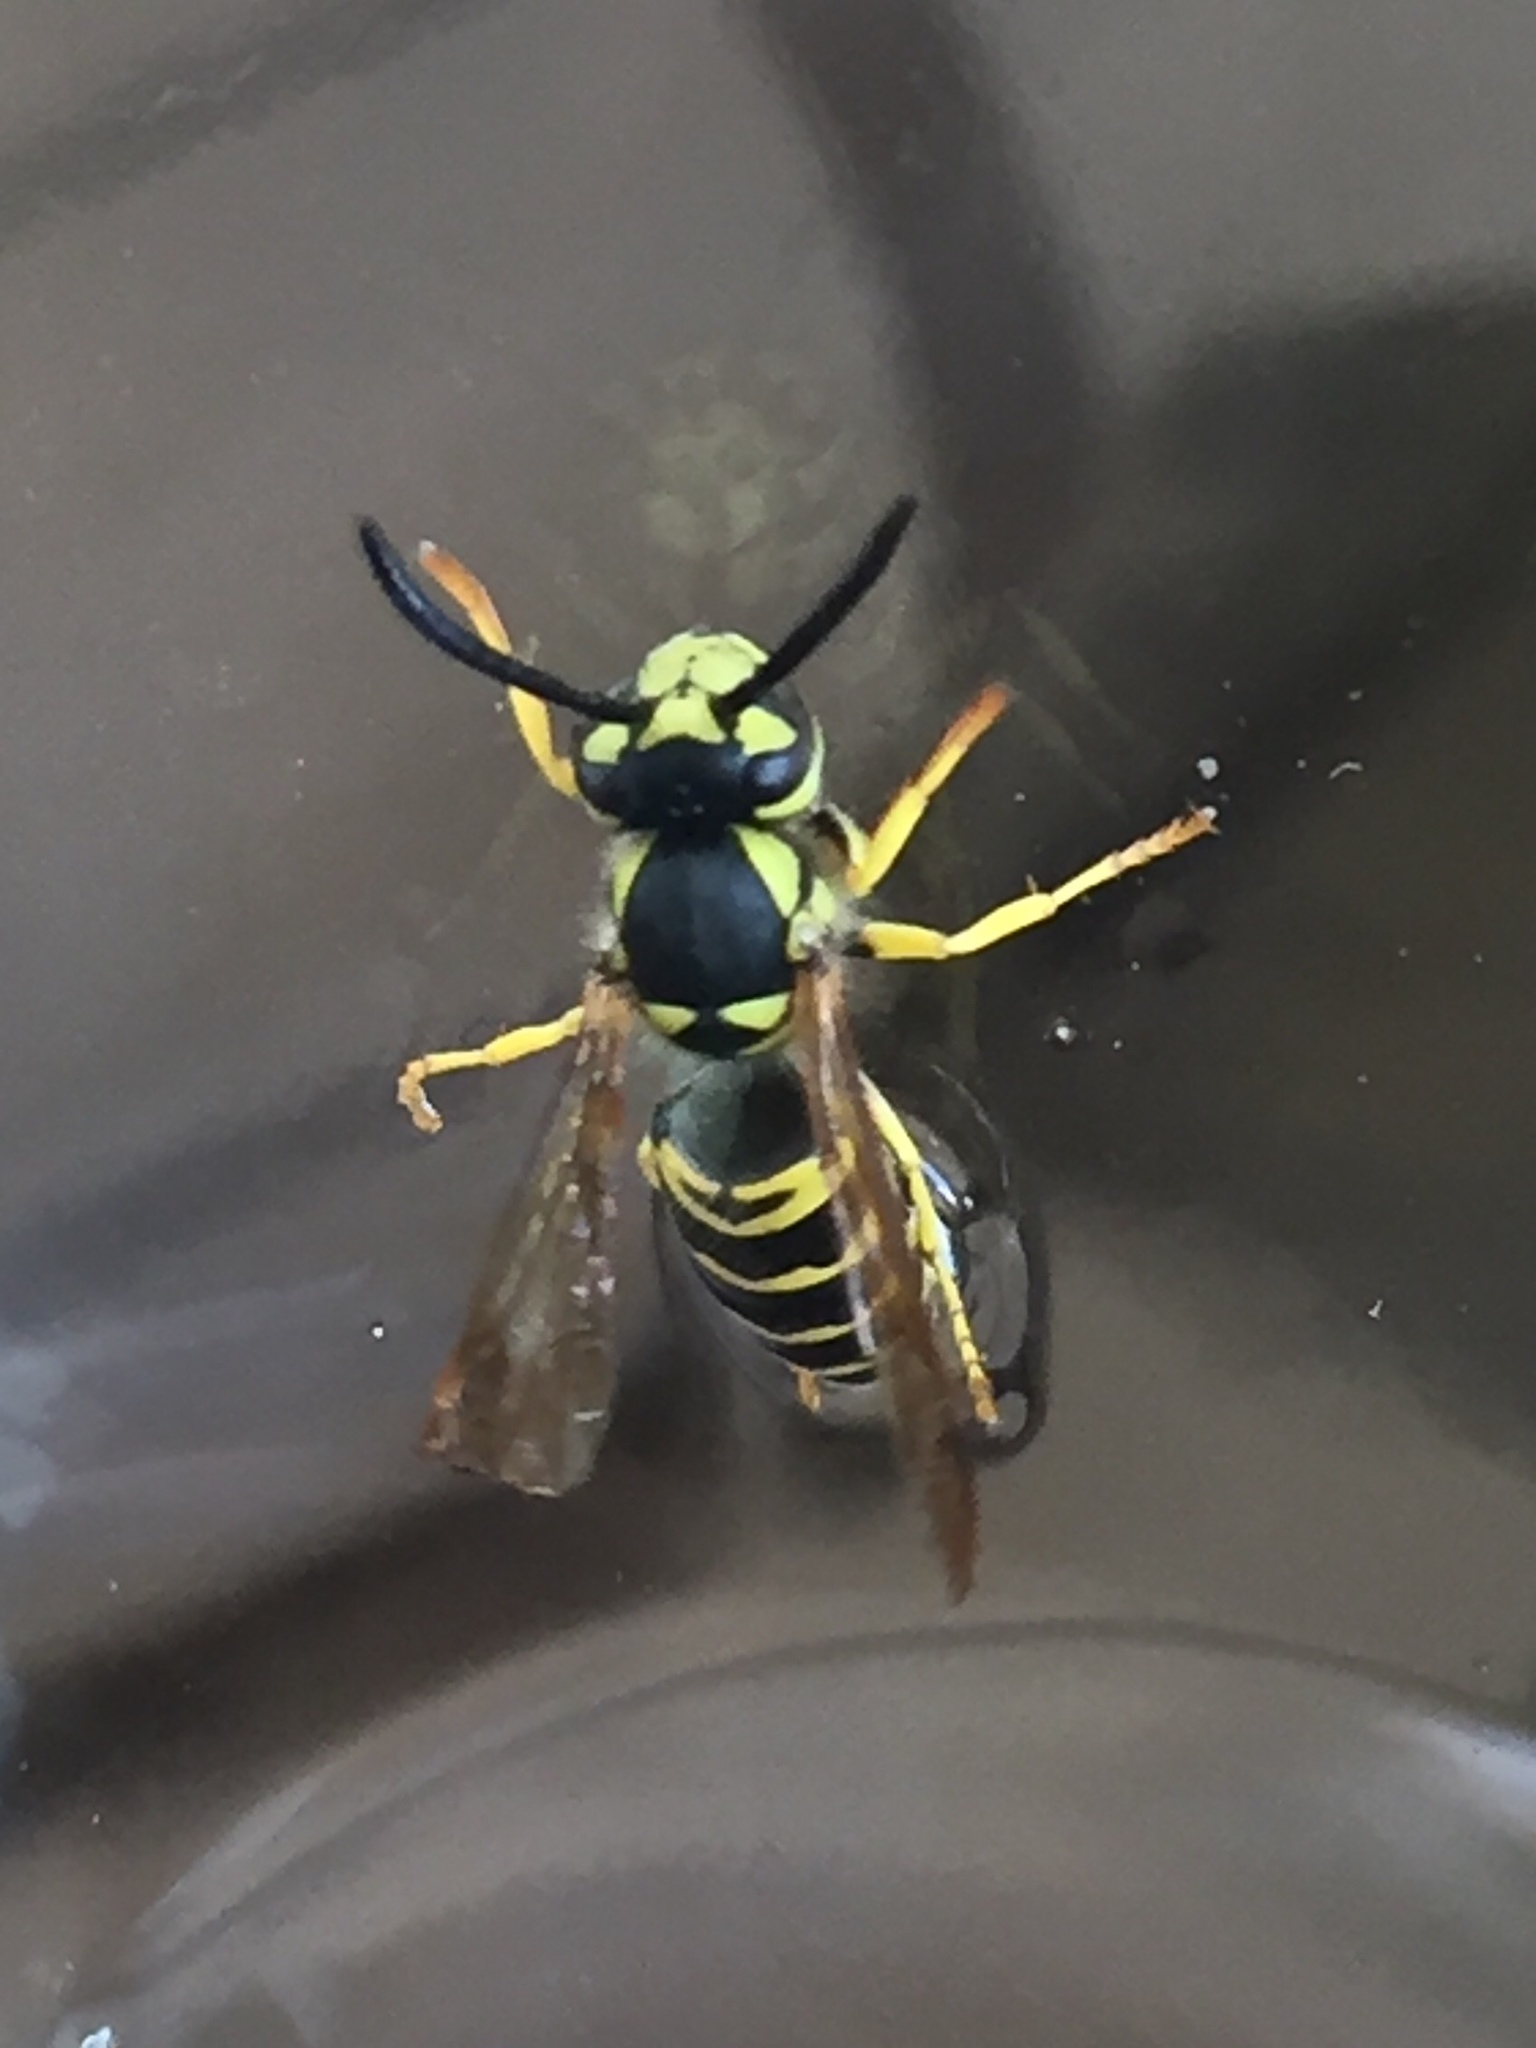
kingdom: Animalia
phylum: Arthropoda
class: Insecta
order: Hymenoptera
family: Vespidae
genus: Vespula
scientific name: Vespula maculifrons
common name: Eastern yellowjacket
